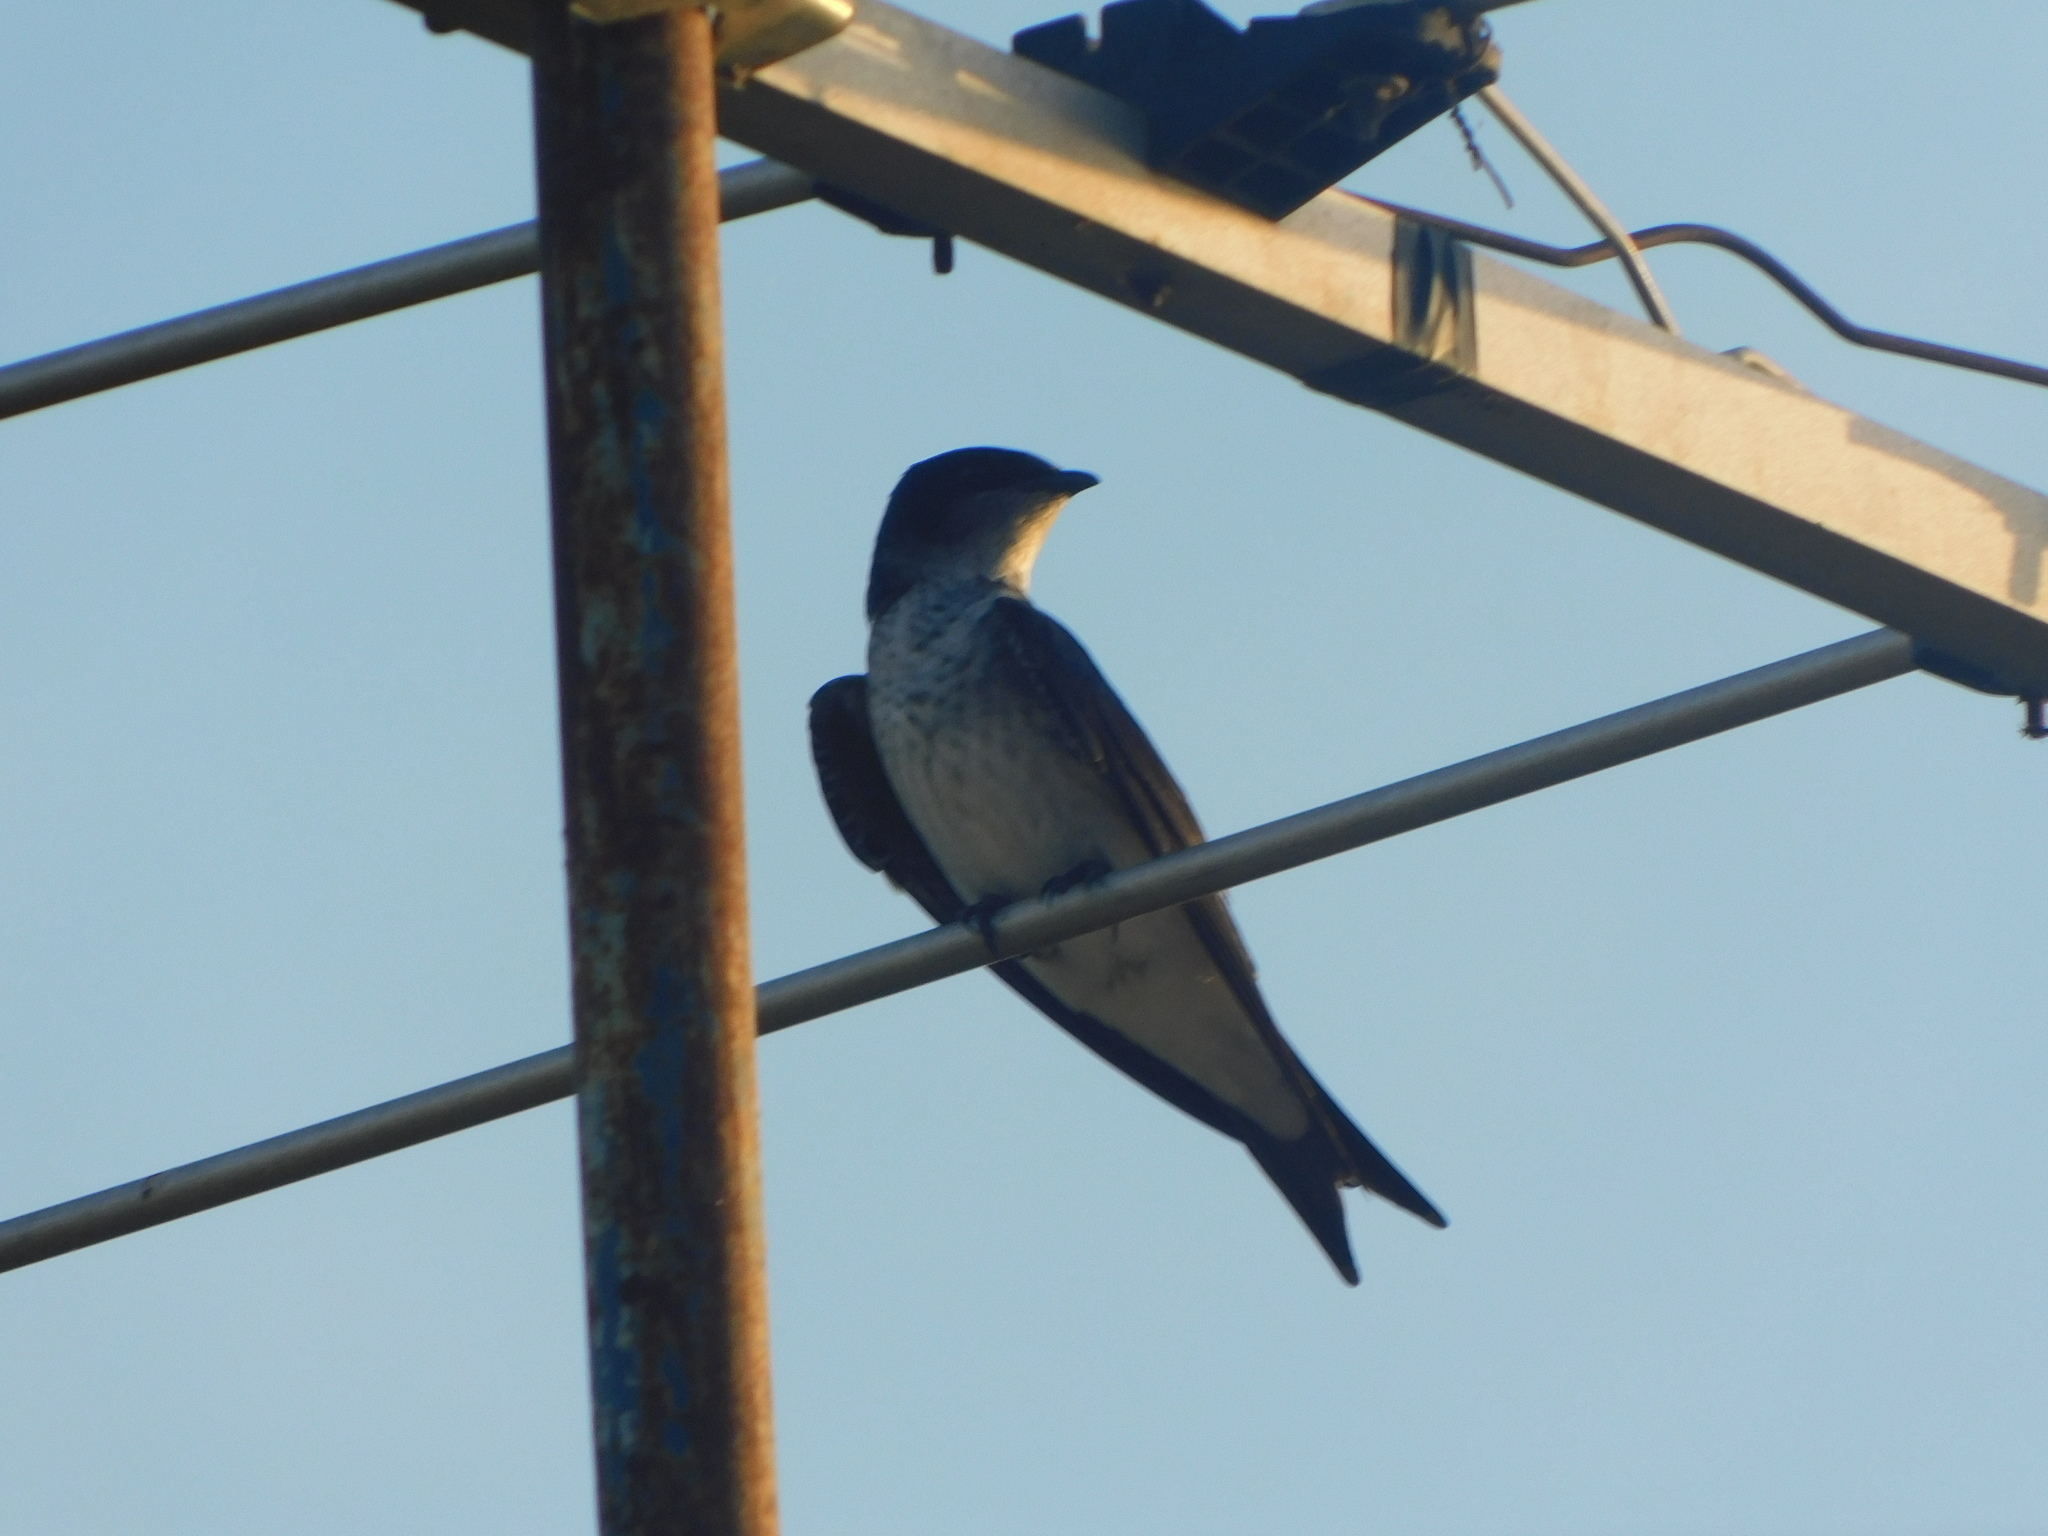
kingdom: Animalia
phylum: Chordata
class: Aves
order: Passeriformes
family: Hirundinidae
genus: Progne
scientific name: Progne chalybea
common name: Grey-breasted martin
